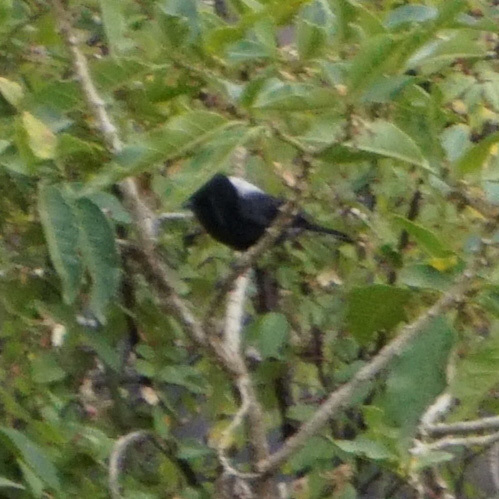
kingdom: Animalia
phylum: Chordata
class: Aves
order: Passeriformes
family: Paridae
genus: Parus
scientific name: Parus leuconotus
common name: White-backed black tit
